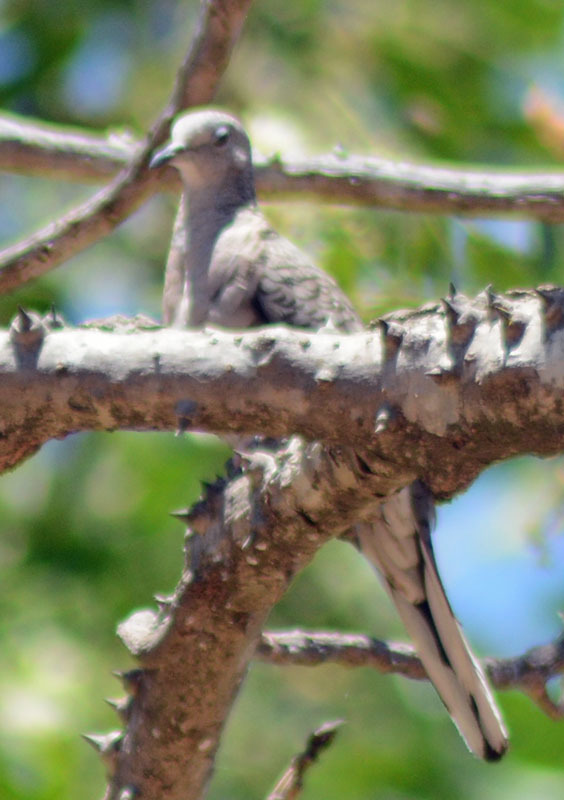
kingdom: Animalia
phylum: Chordata
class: Aves
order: Columbiformes
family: Columbidae
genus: Columbina
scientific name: Columbina inca
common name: Inca dove
